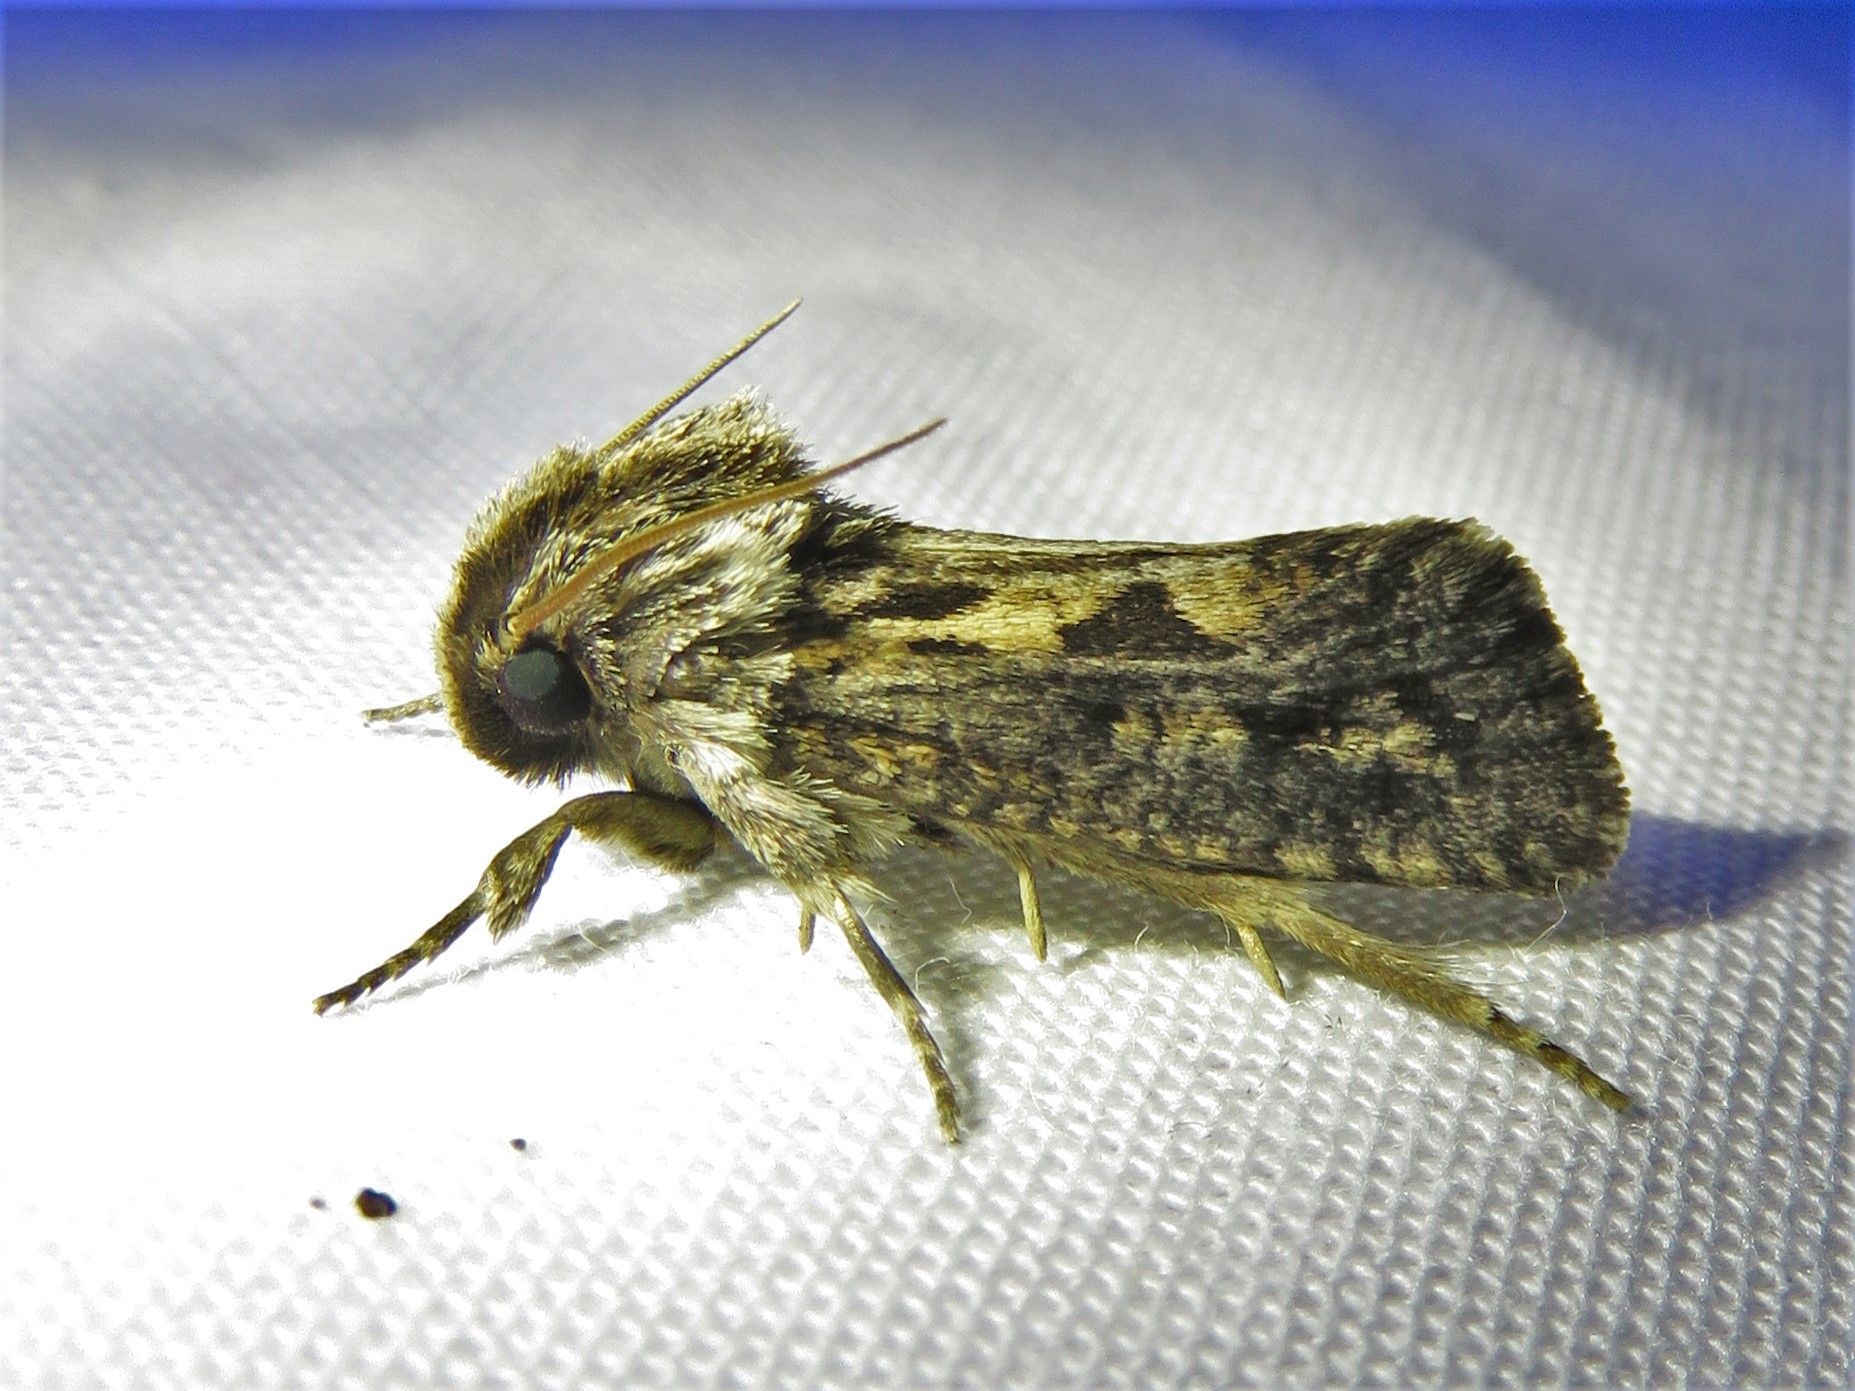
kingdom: Animalia
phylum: Arthropoda
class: Insecta
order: Lepidoptera
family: Tineidae
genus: Acrolophus
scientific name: Acrolophus popeanella
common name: Clemens' grass tubeworm moth
